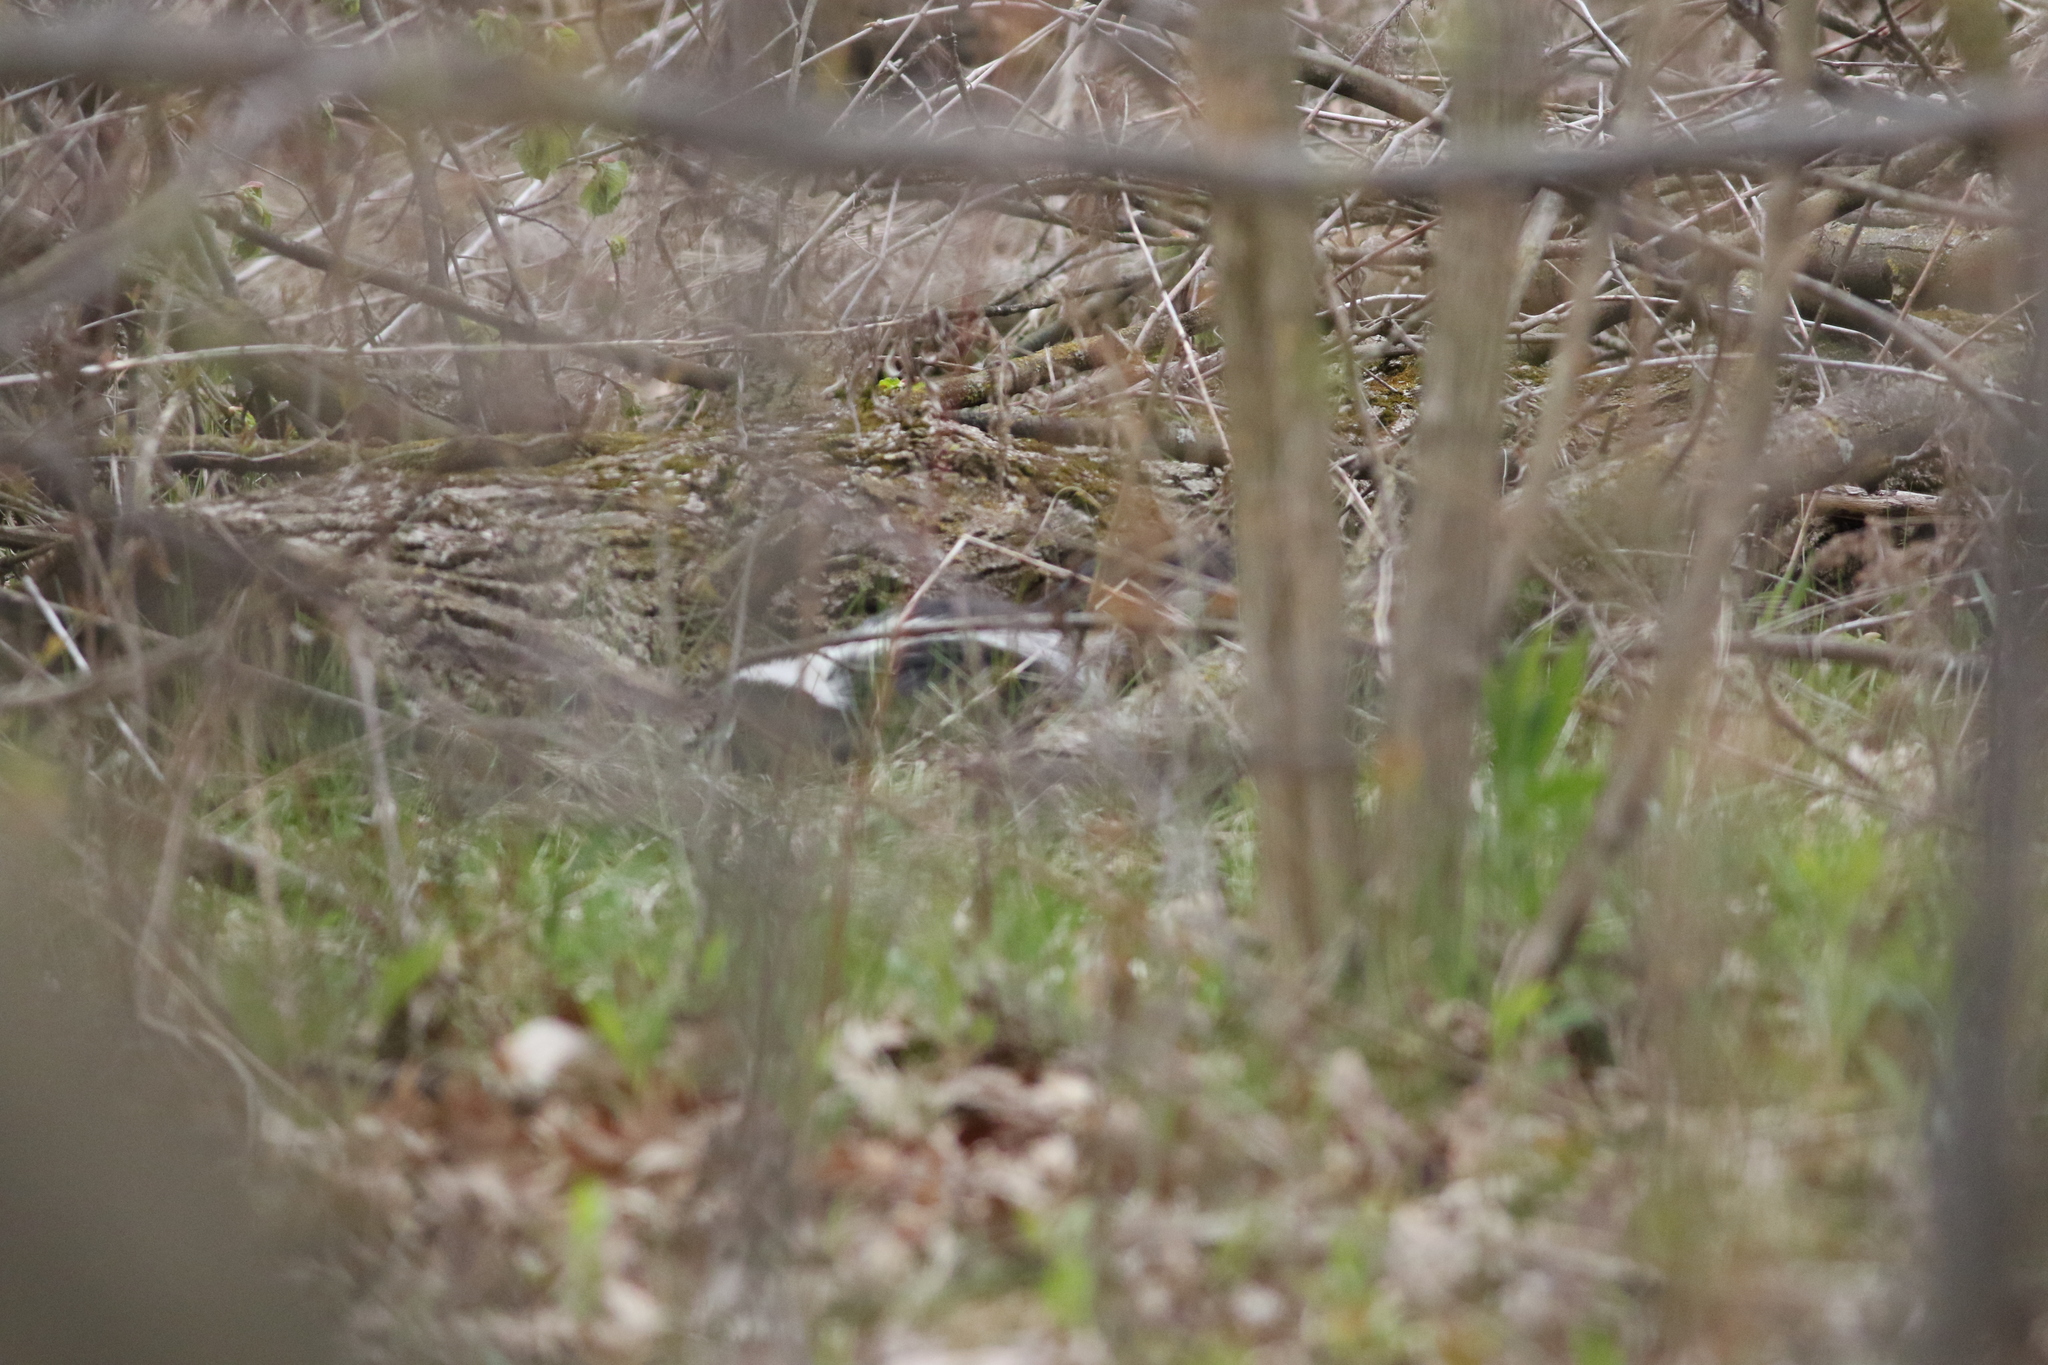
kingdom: Animalia
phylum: Chordata
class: Mammalia
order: Carnivora
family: Mephitidae
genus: Mephitis
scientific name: Mephitis mephitis
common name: Striped skunk
